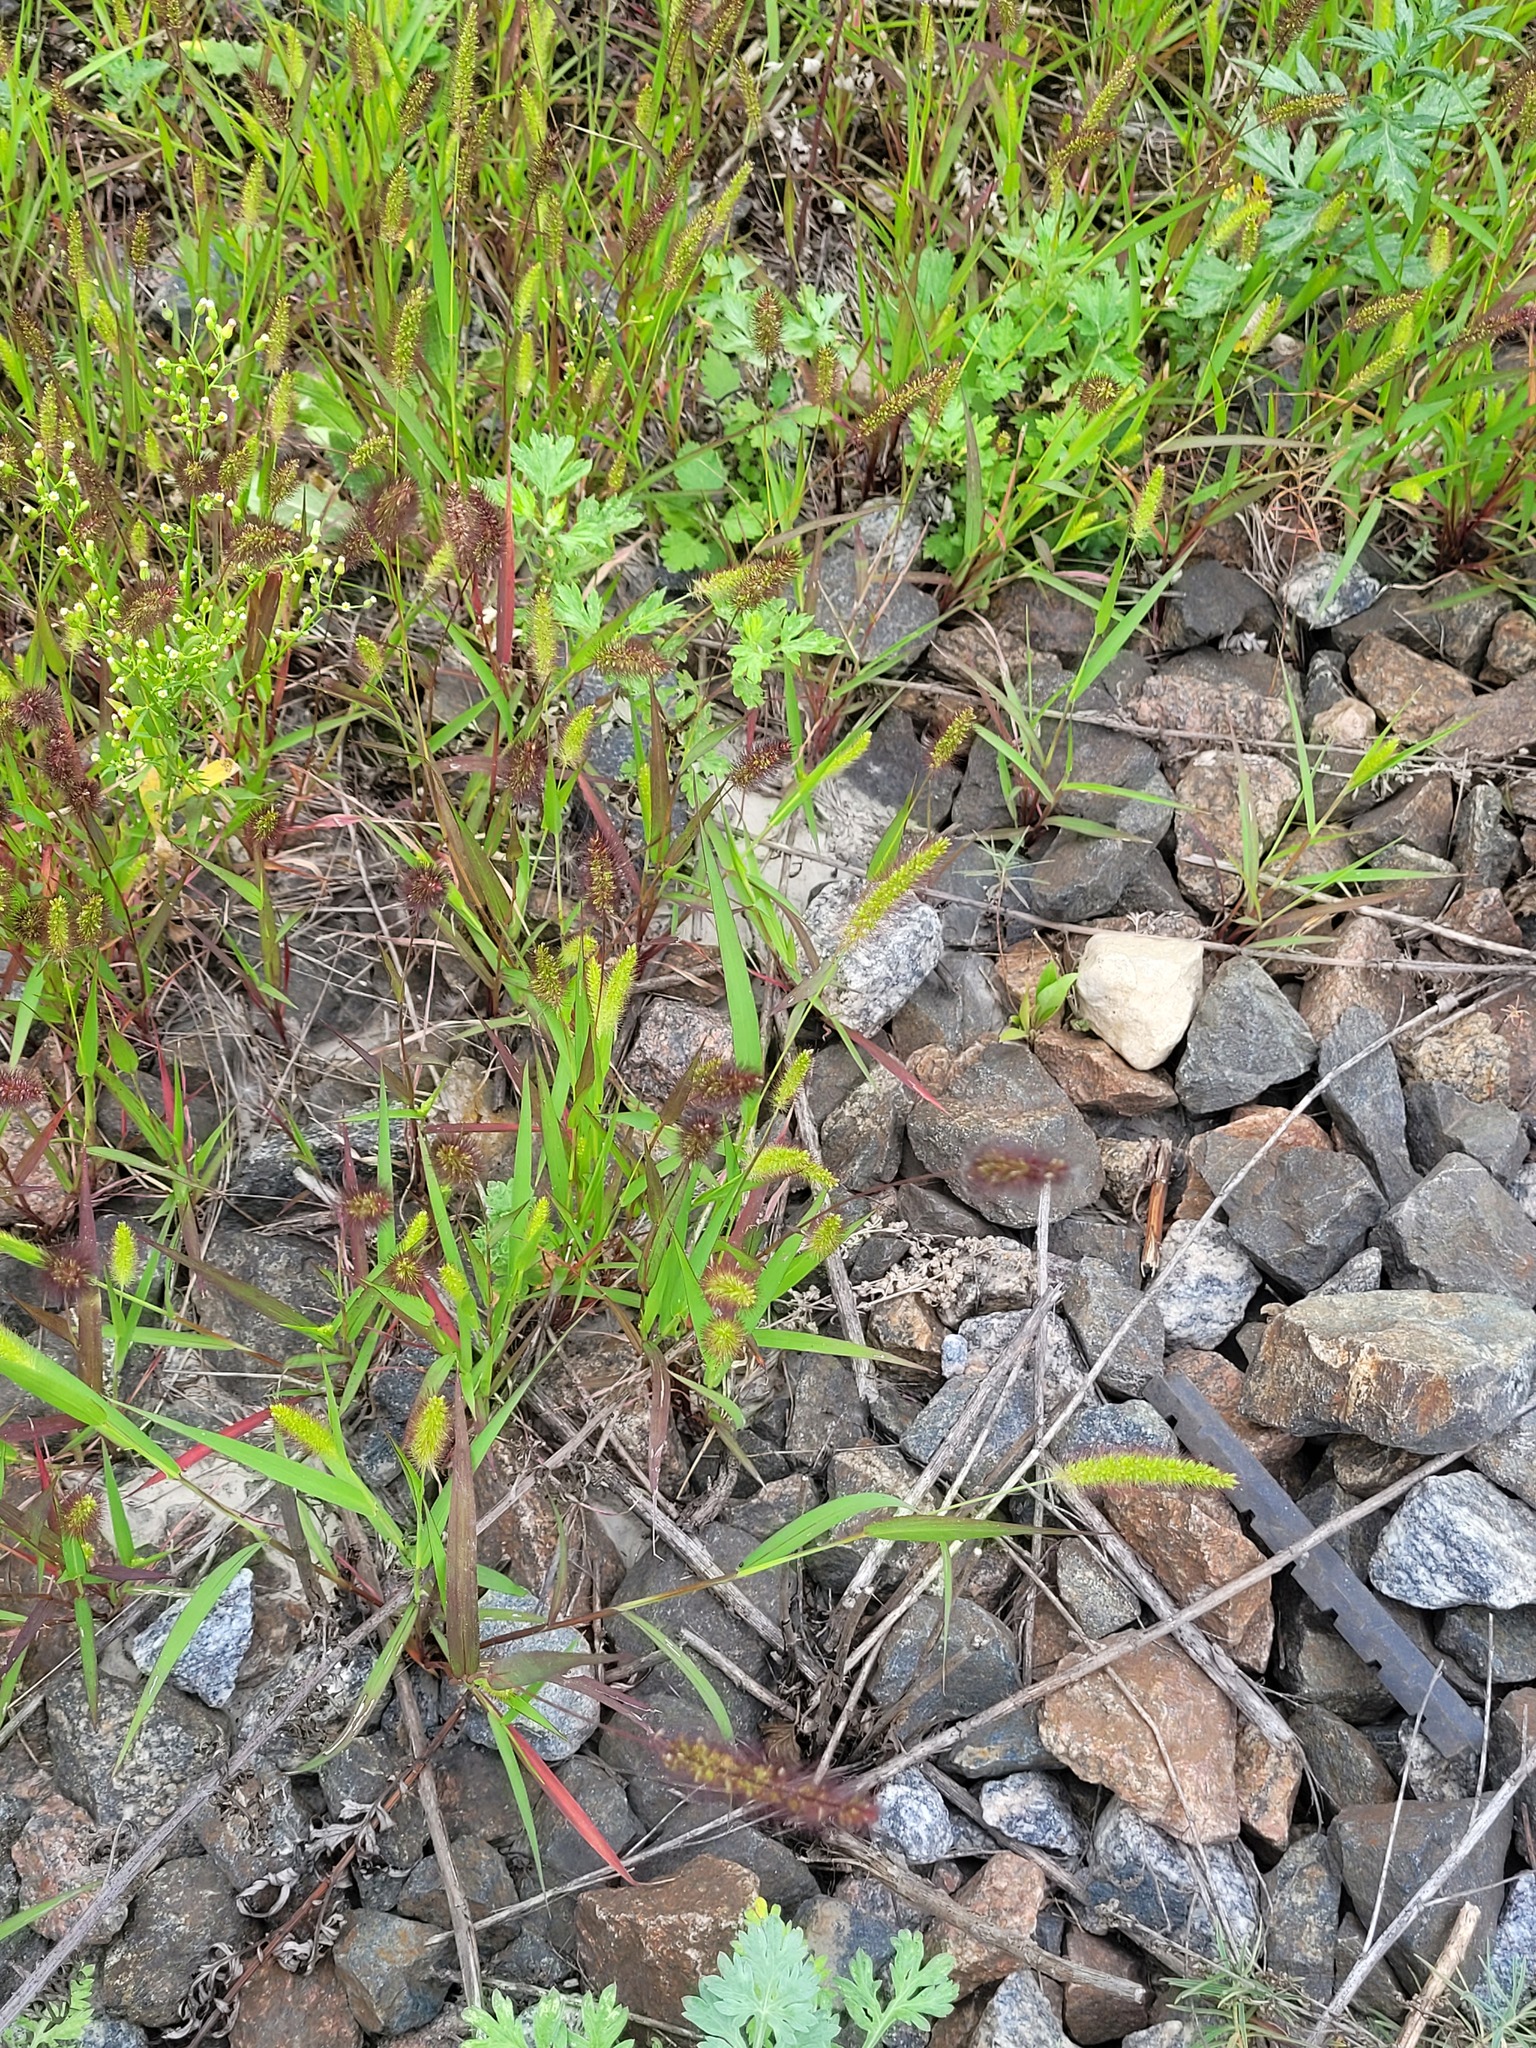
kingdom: Plantae
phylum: Tracheophyta
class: Liliopsida
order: Poales
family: Poaceae
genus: Setaria
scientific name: Setaria viridis
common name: Green bristlegrass
